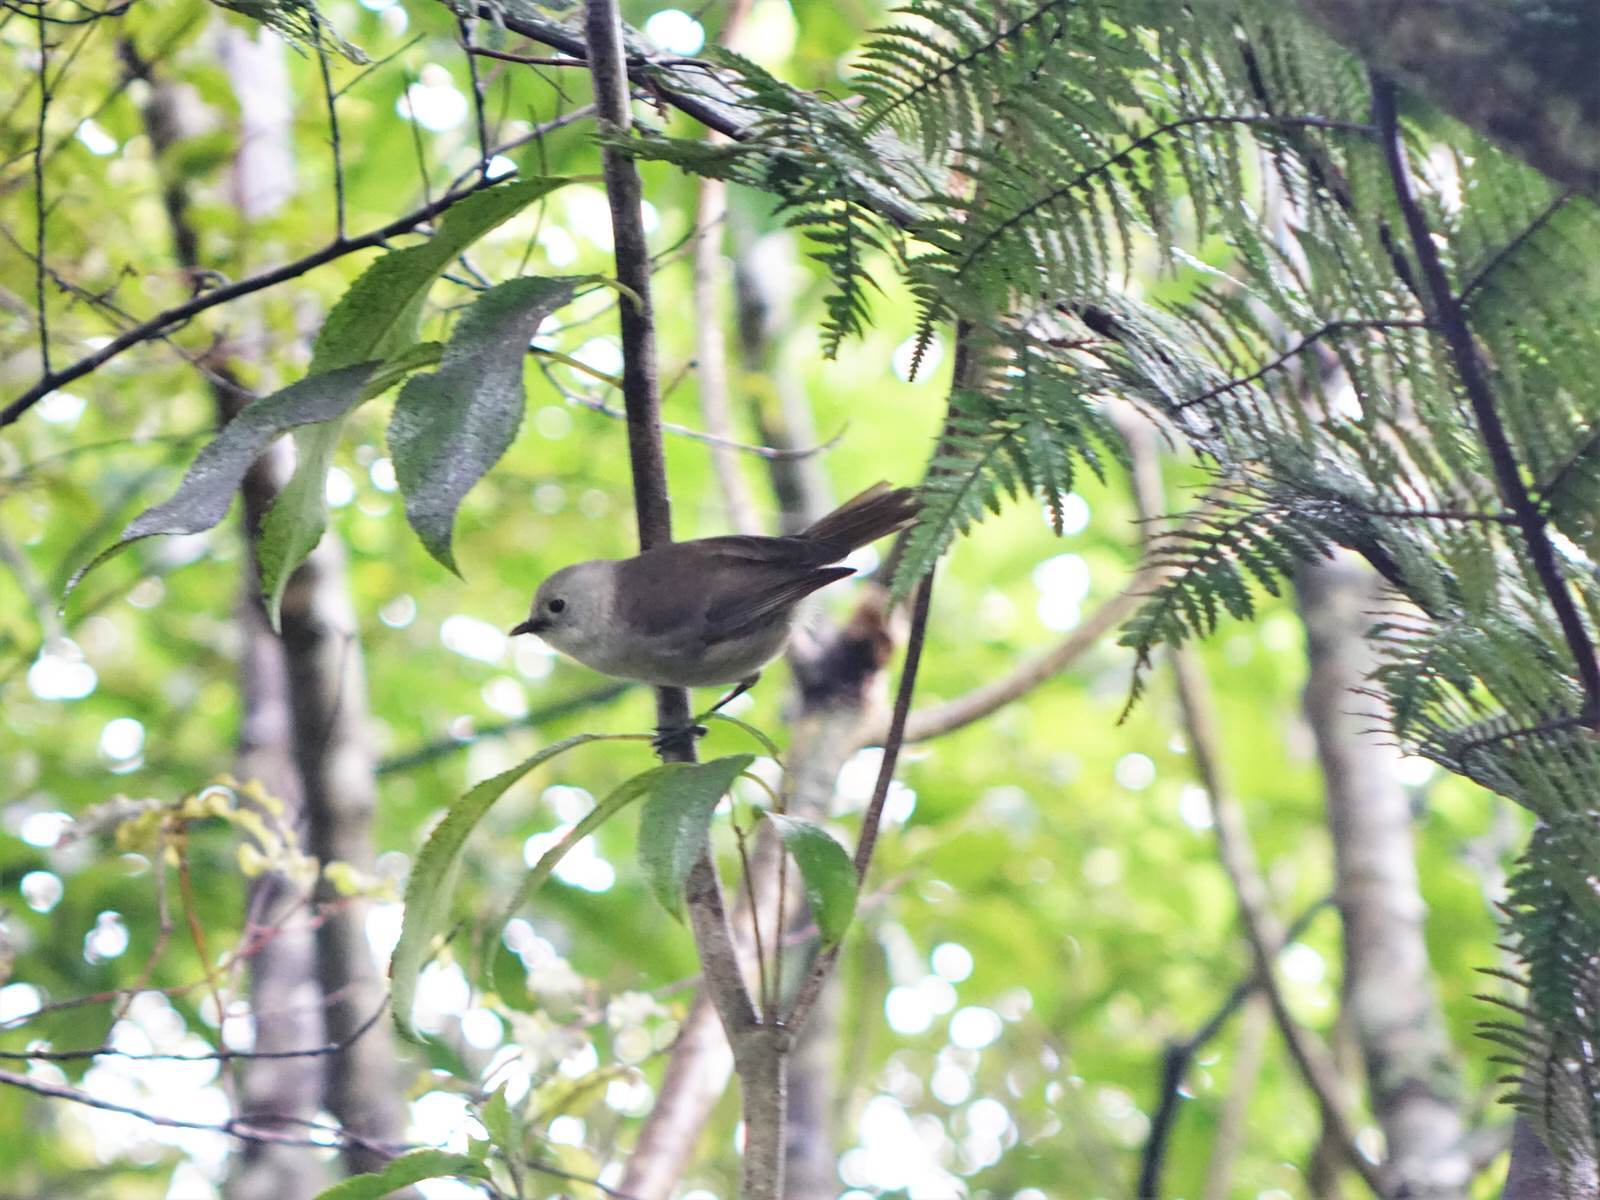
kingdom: Animalia
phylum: Chordata
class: Aves
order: Passeriformes
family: Acanthizidae
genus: Mohoua
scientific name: Mohoua albicilla
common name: Whitehead
